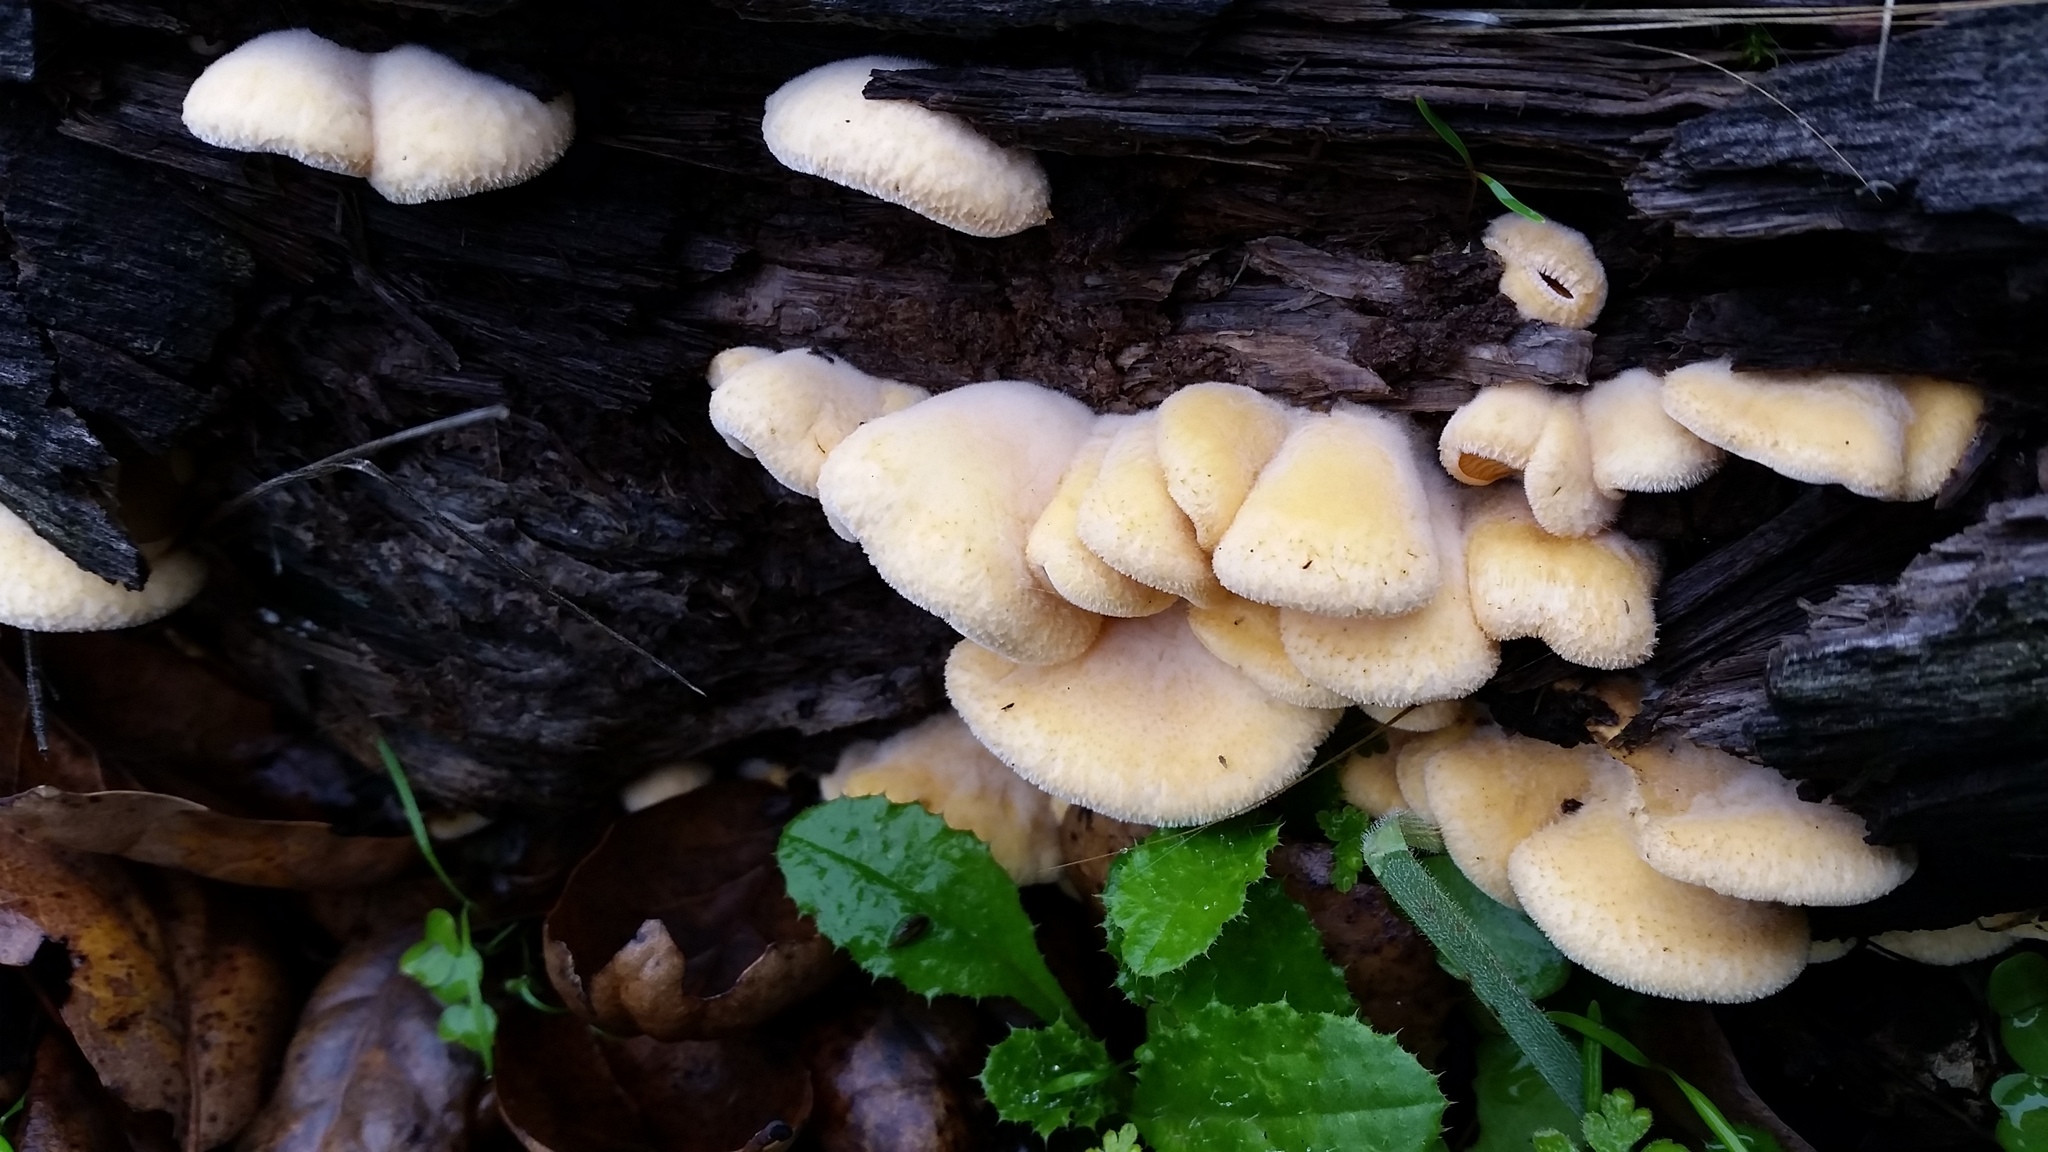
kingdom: Fungi
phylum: Basidiomycota
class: Agaricomycetes
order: Agaricales
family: Phyllotopsidaceae
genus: Phyllotopsis
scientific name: Phyllotopsis nidulans
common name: Orange mock oyster
